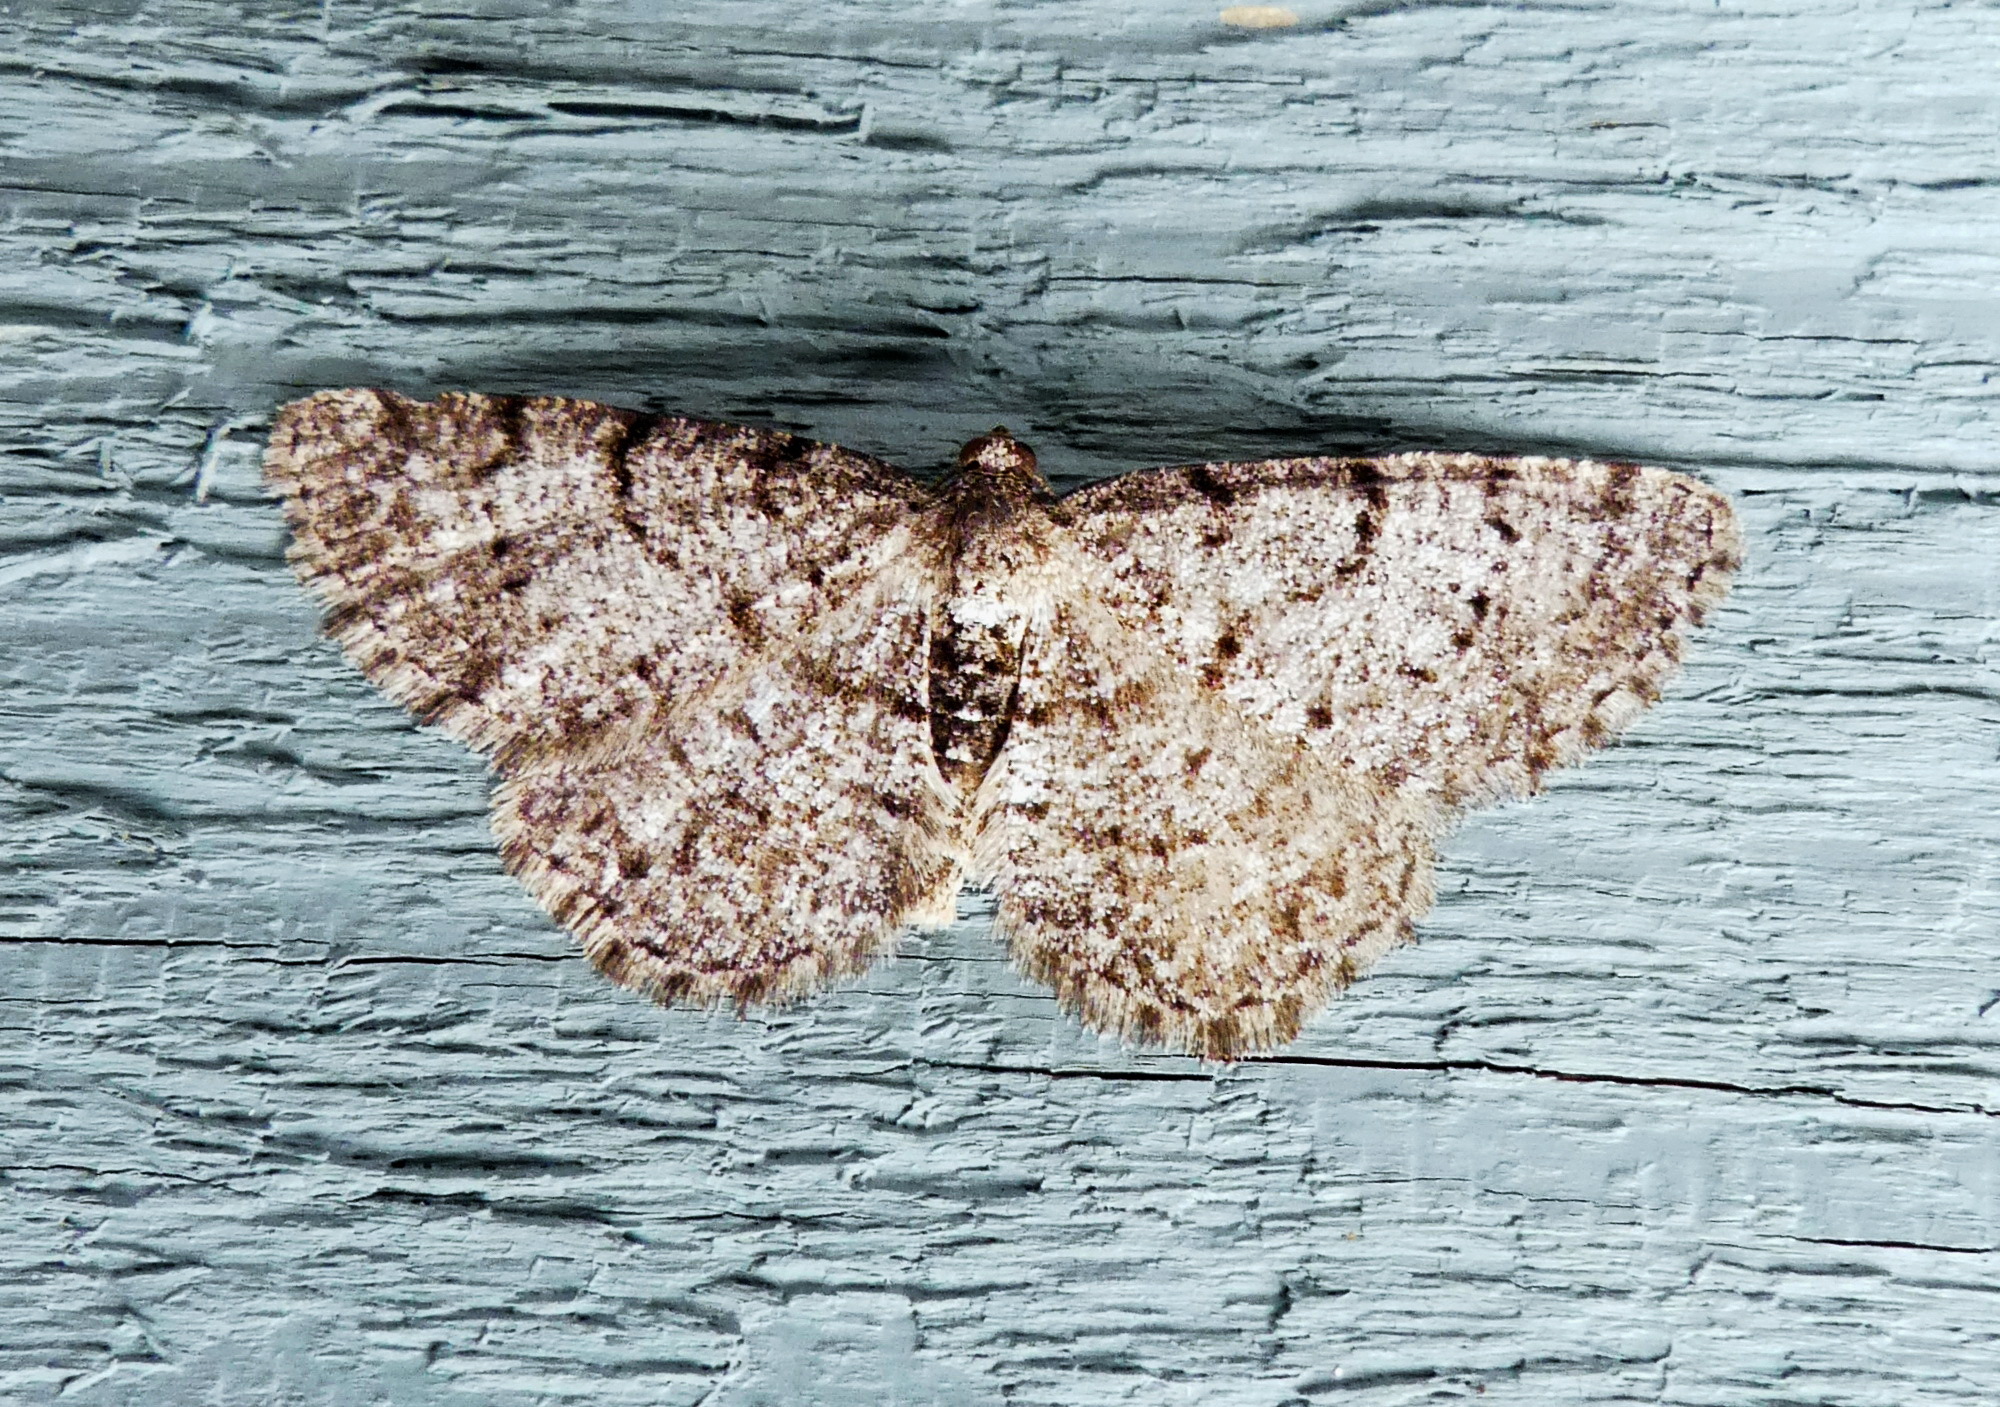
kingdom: Animalia
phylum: Arthropoda
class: Insecta
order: Lepidoptera
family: Geometridae
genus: Aethalura
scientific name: Aethalura intertexta
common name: Four-barred gray
